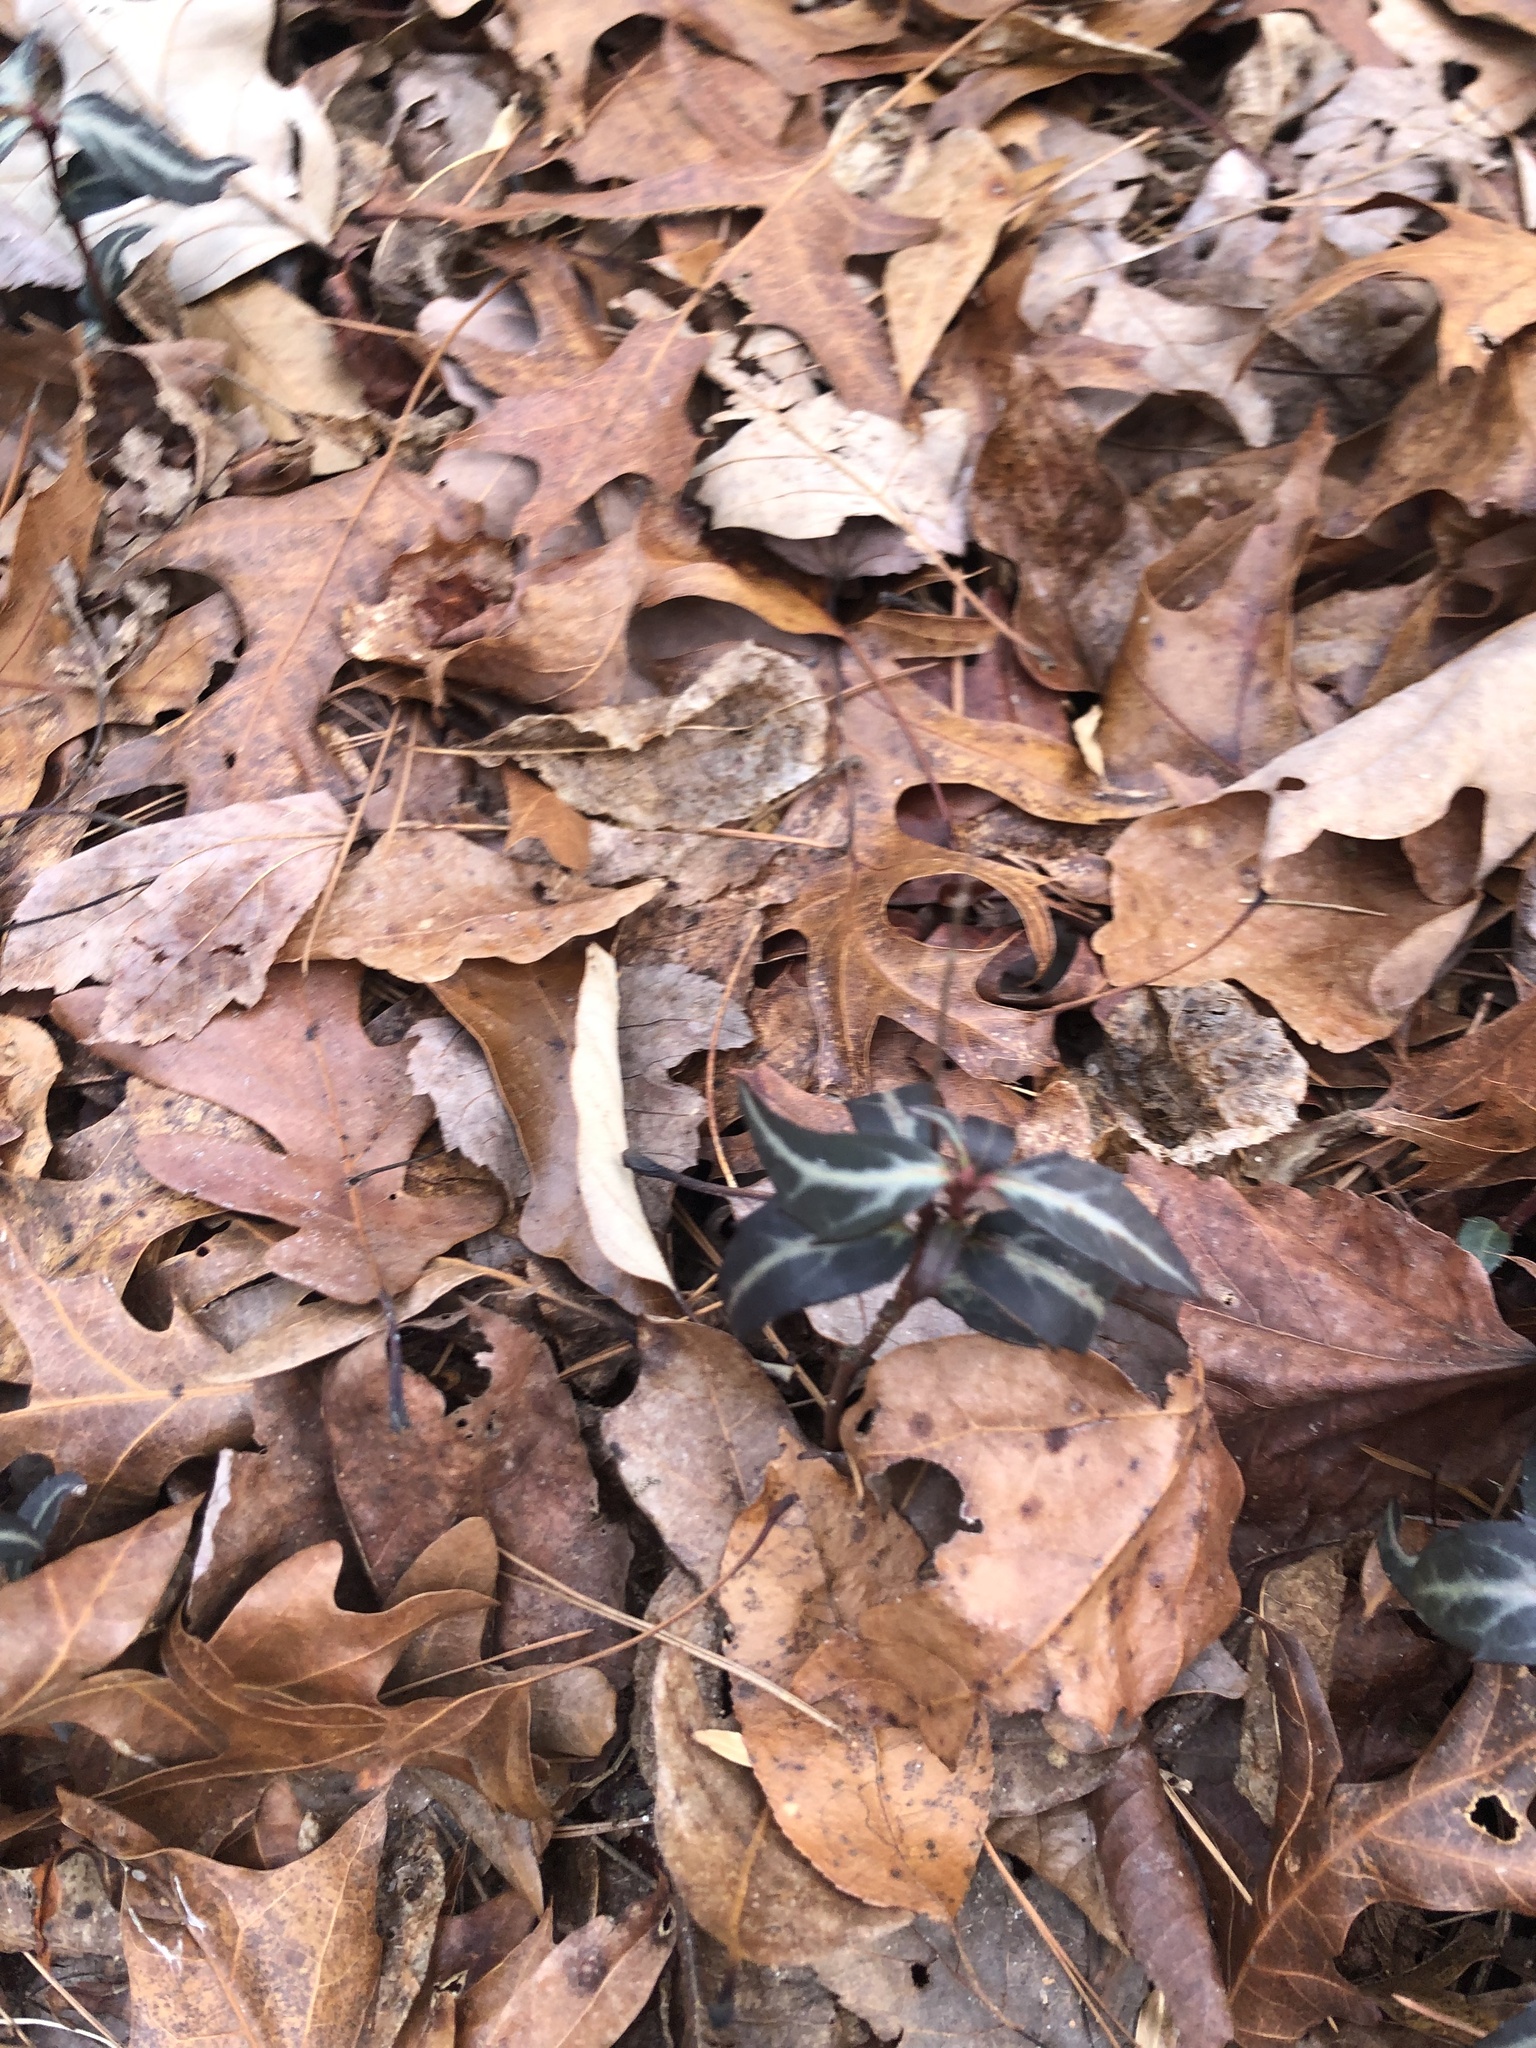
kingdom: Plantae
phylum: Tracheophyta
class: Magnoliopsida
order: Ericales
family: Ericaceae
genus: Chimaphila
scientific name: Chimaphila maculata
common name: Spotted pipsissewa
